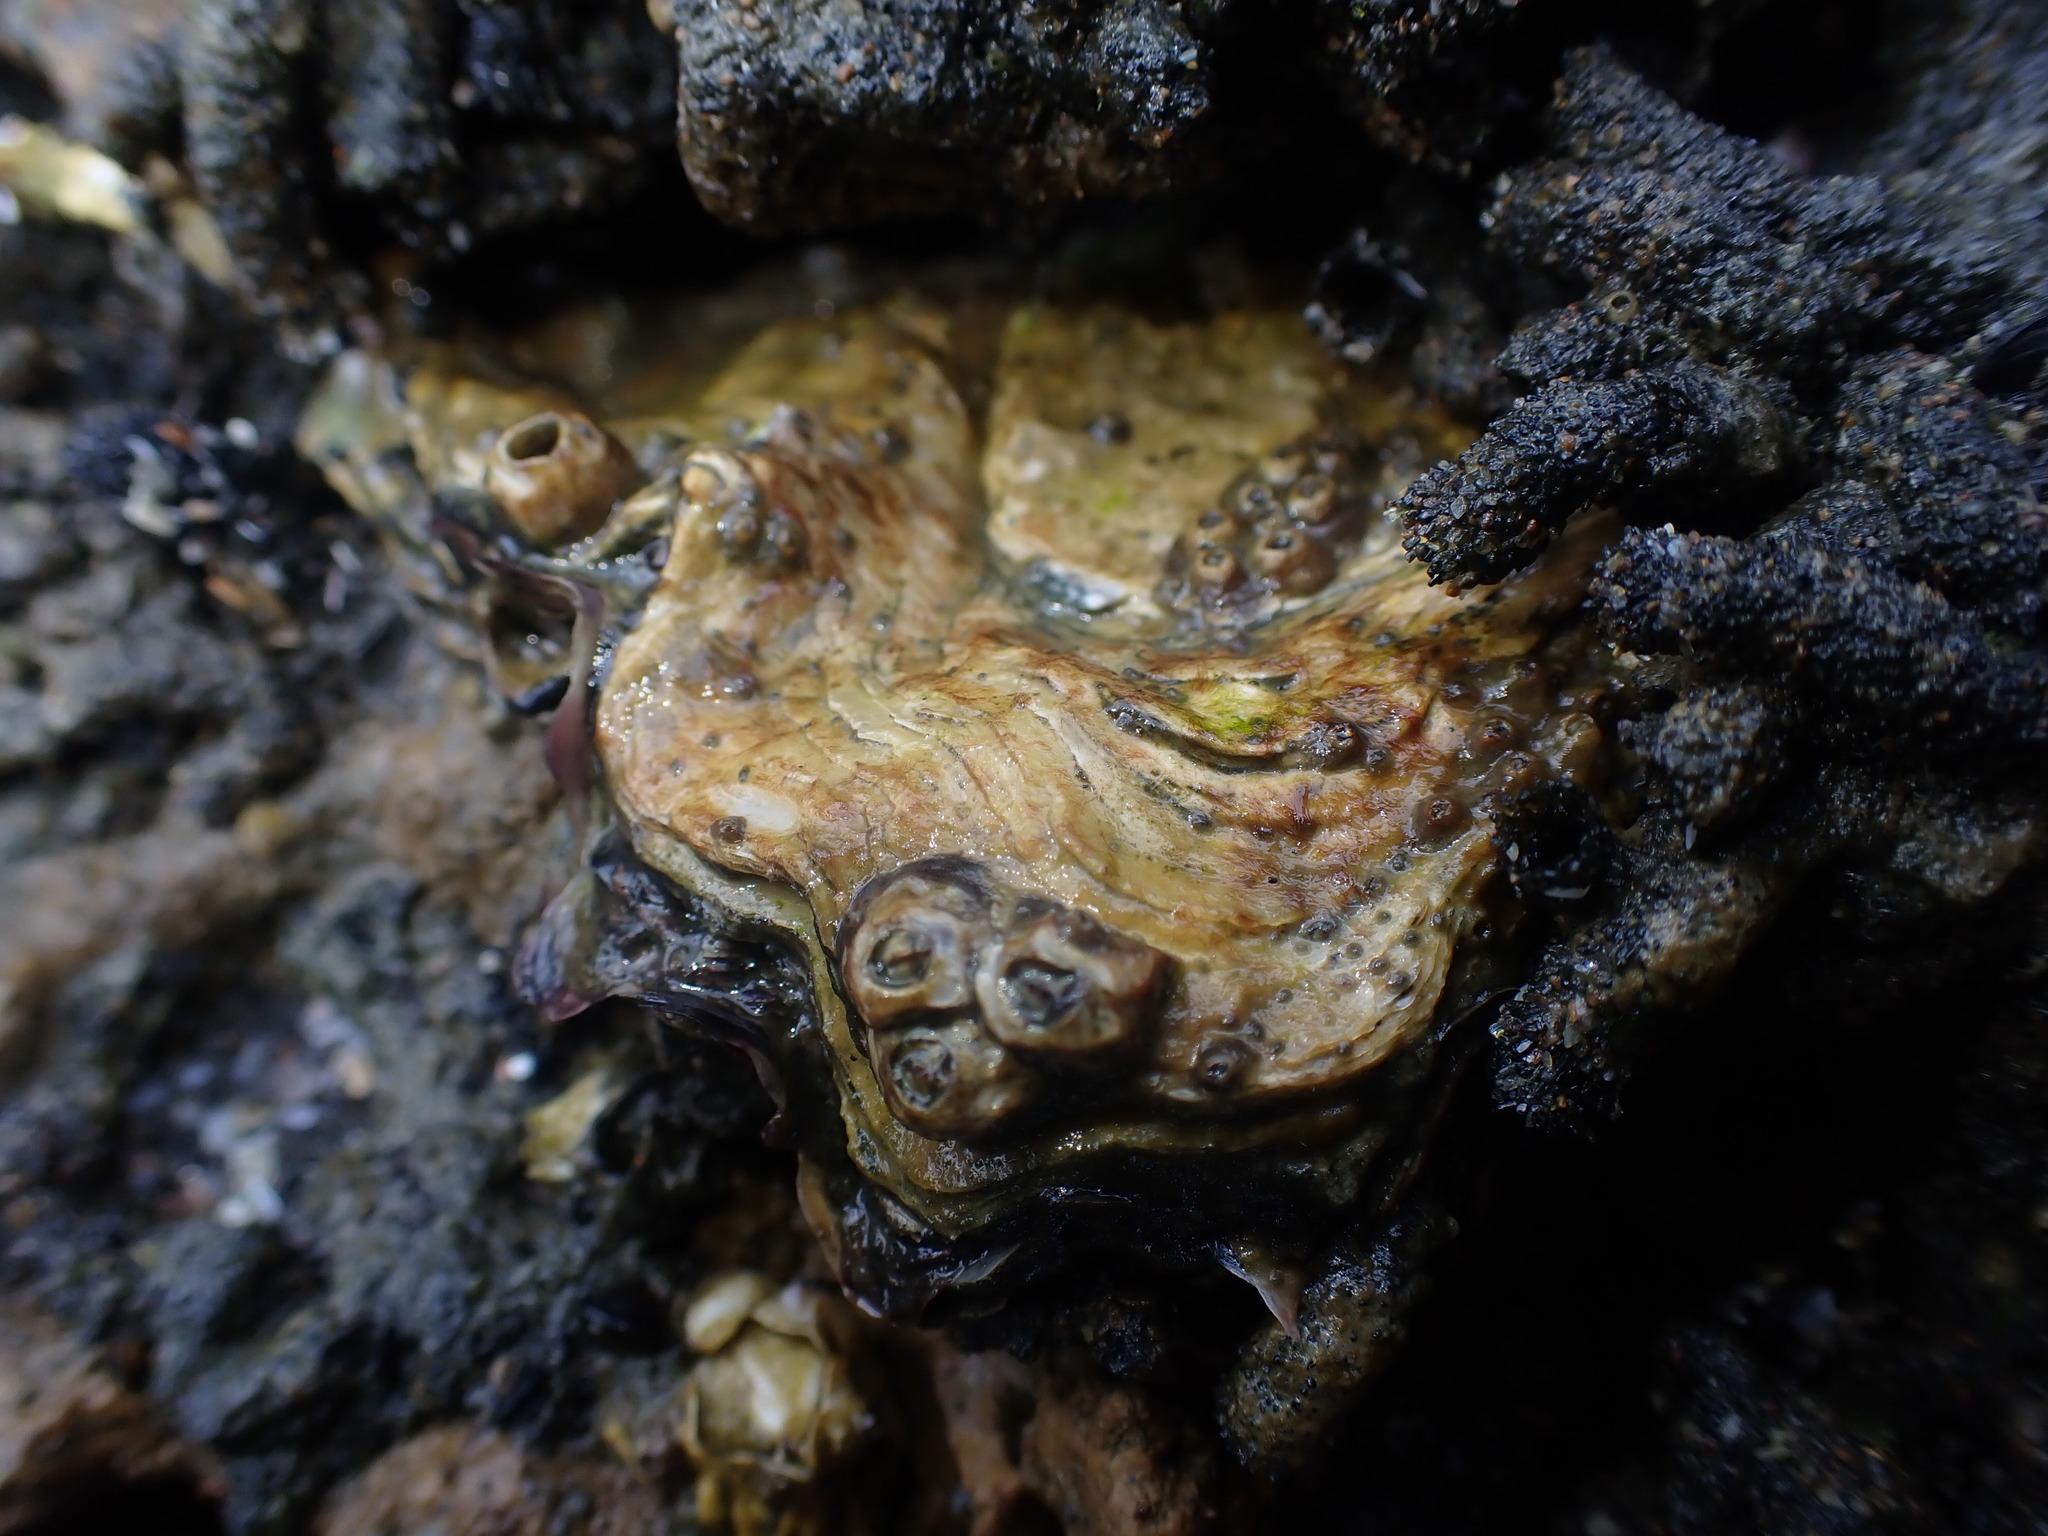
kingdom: Animalia
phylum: Mollusca
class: Bivalvia
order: Ostreida
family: Ostreidae
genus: Magallana
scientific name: Magallana gigas
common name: Pacific oyster
